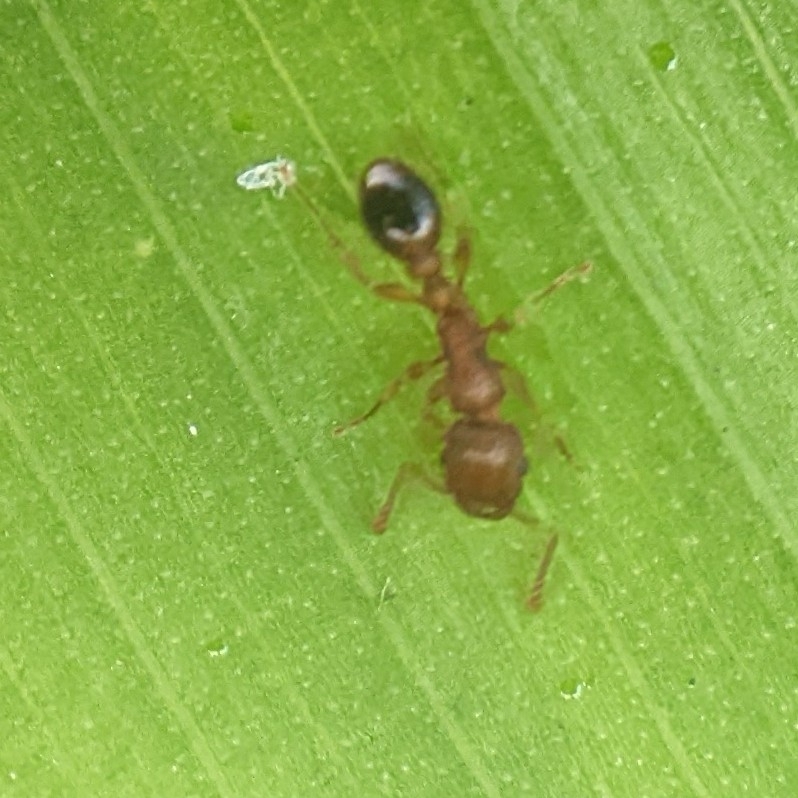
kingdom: Animalia
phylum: Arthropoda
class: Insecta
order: Hymenoptera
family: Formicidae
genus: Tetramorium
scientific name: Tetramorium bicarinatum
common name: Guinea ant
